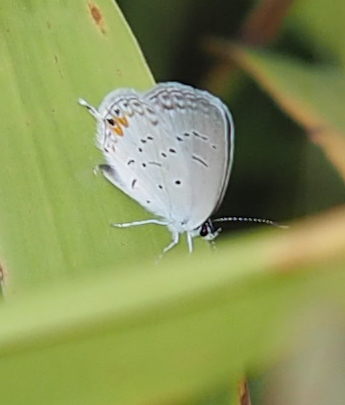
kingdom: Animalia
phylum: Arthropoda
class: Insecta
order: Lepidoptera
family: Lycaenidae
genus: Elkalyce
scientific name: Elkalyce comyntas
